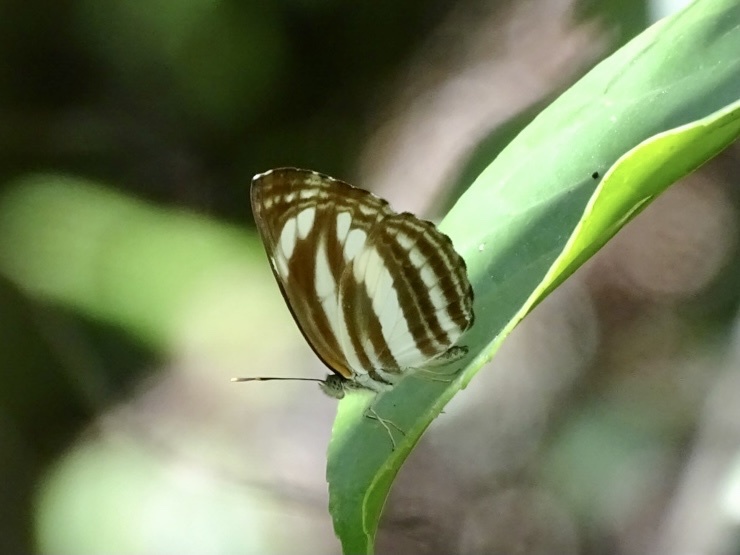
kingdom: Animalia
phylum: Arthropoda
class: Insecta
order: Lepidoptera
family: Nymphalidae
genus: Neptis
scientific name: Neptis clinia
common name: Southern sullied sailer
